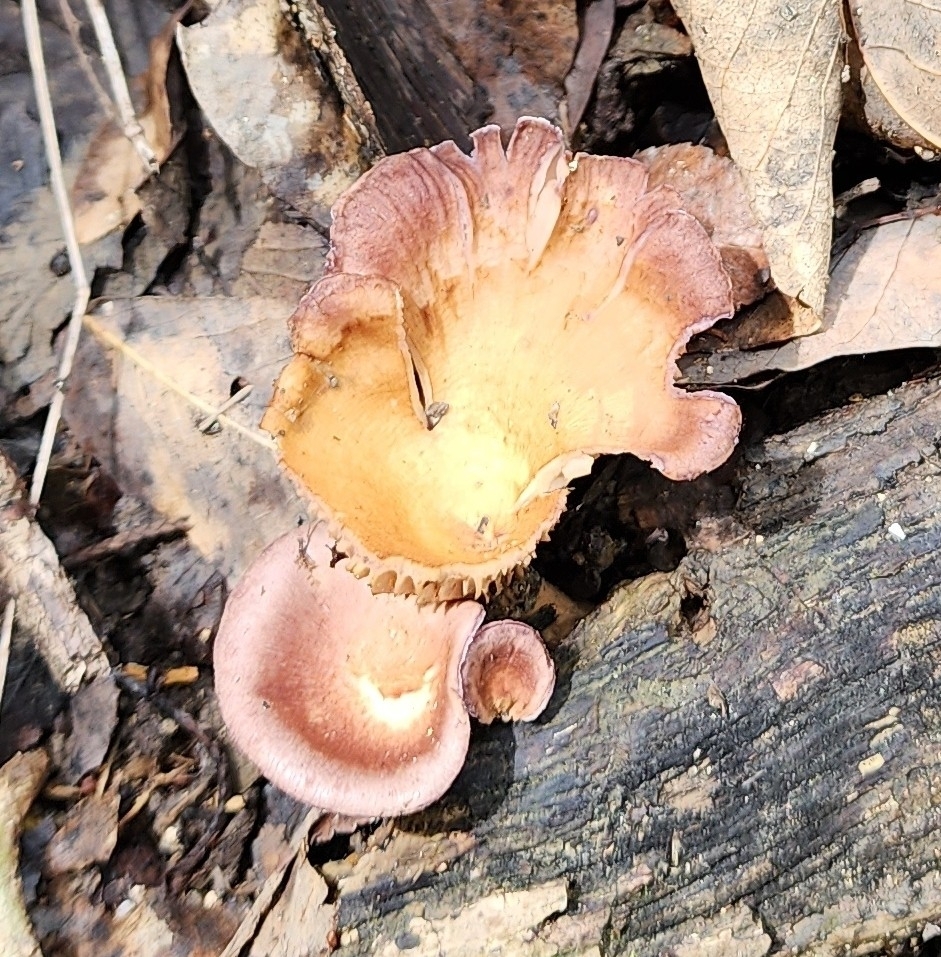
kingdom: Fungi
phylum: Basidiomycota
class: Agaricomycetes
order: Polyporales
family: Panaceae
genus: Panus
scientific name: Panus conchatus
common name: Lilac oysterling
